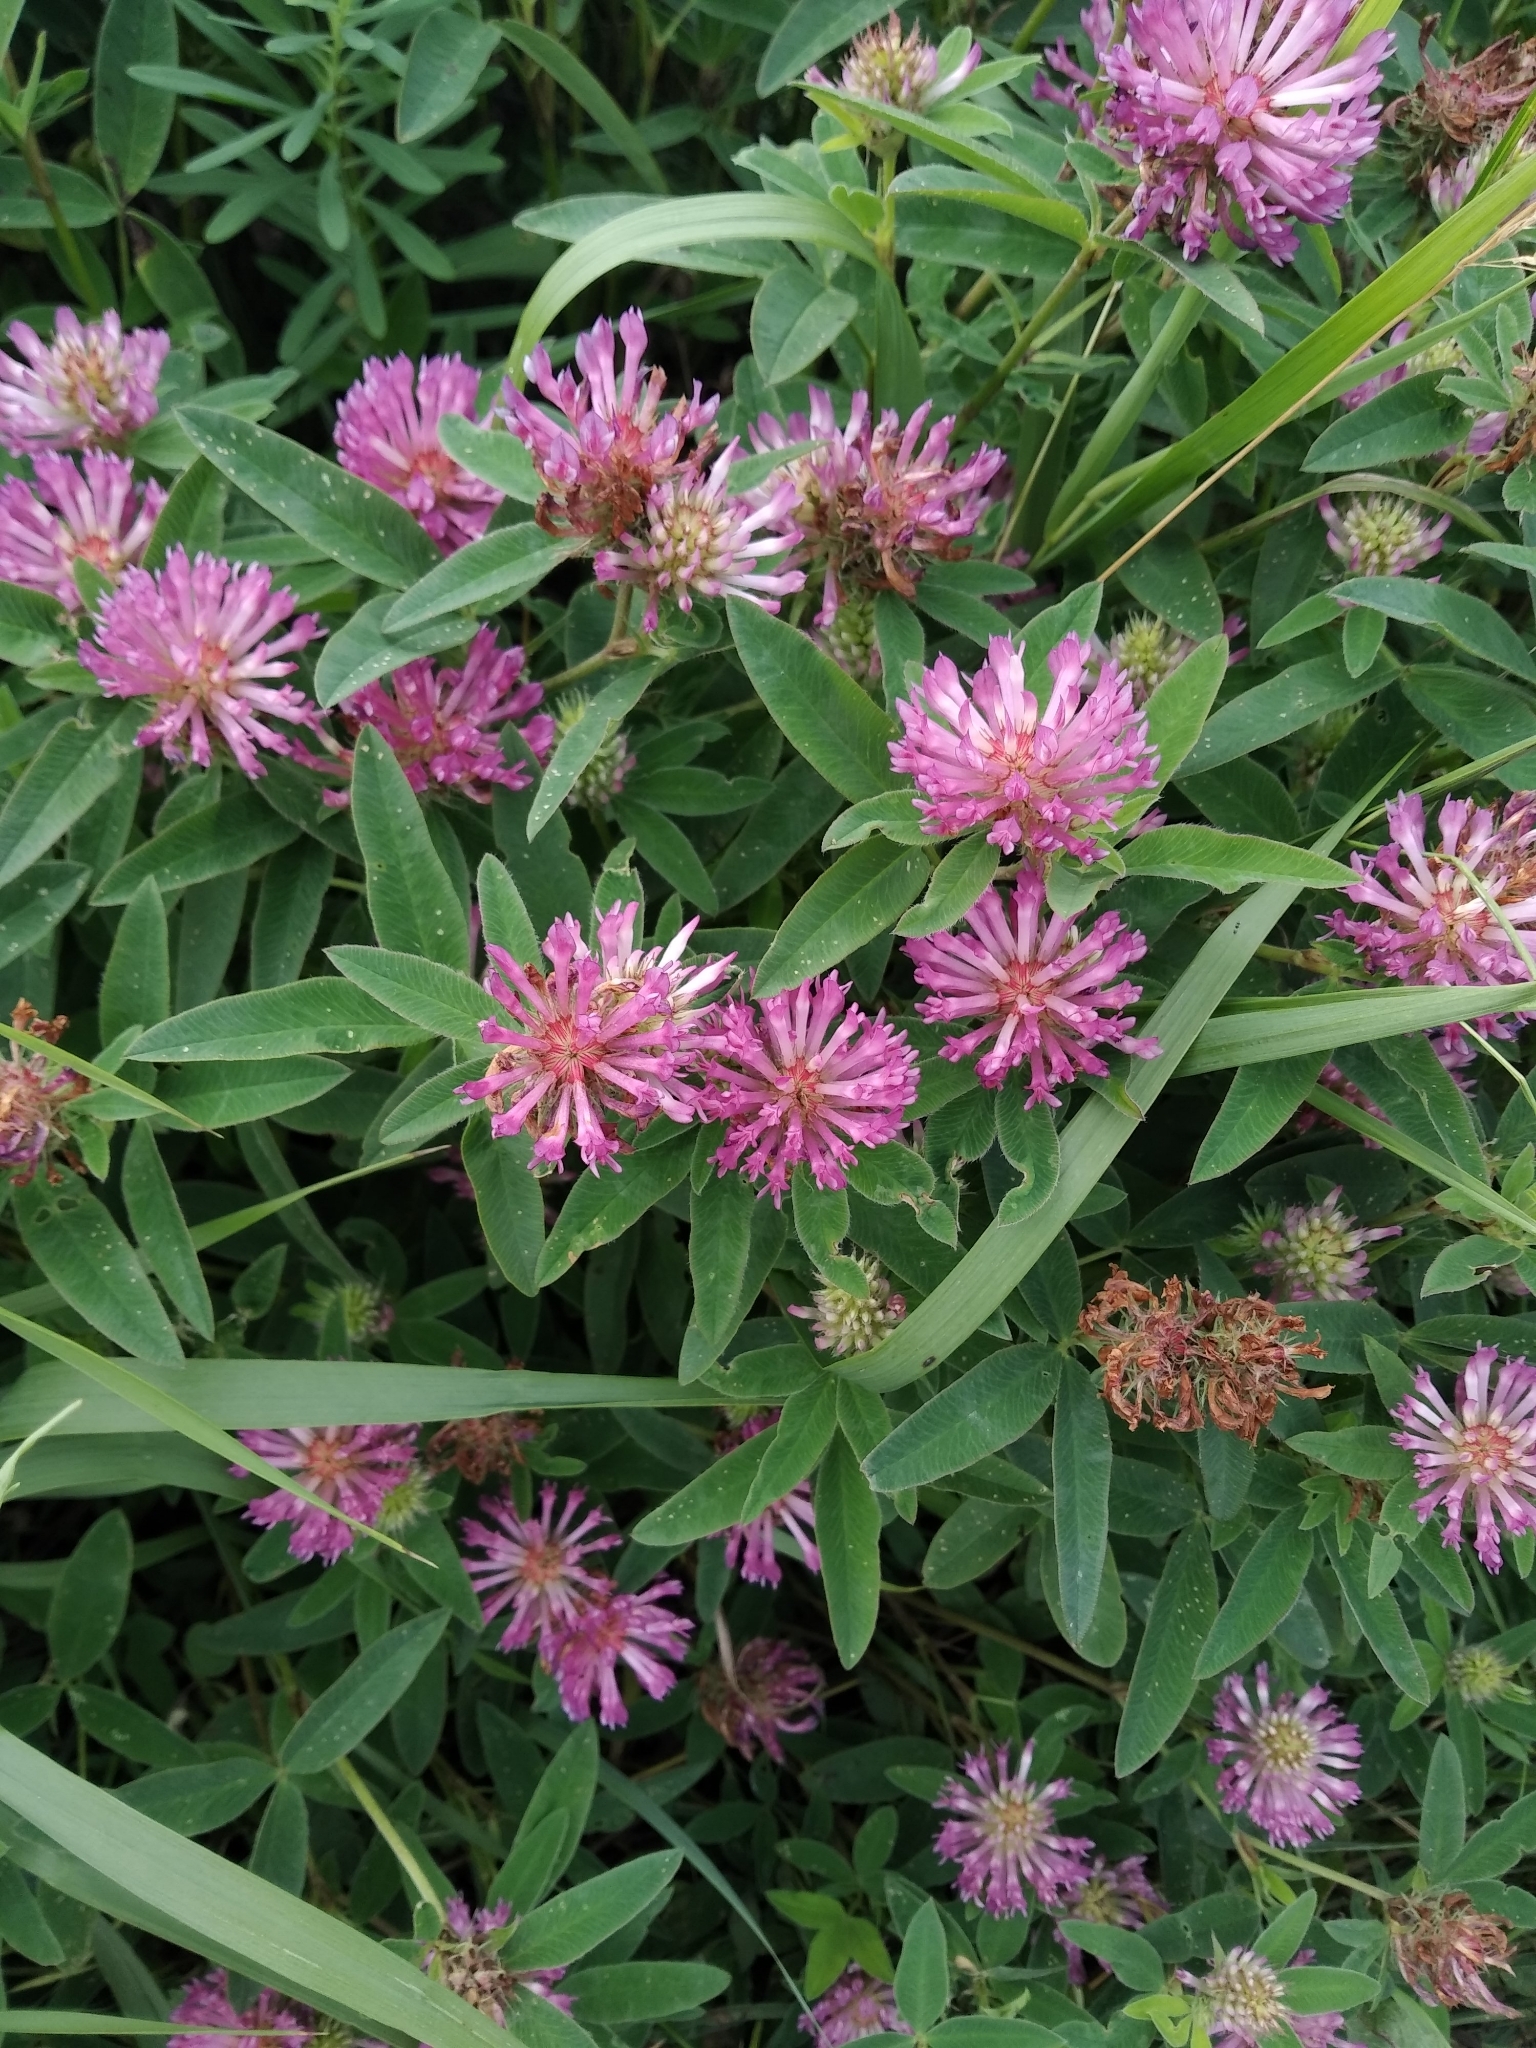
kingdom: Plantae
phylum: Tracheophyta
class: Magnoliopsida
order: Fabales
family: Fabaceae
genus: Trifolium
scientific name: Trifolium medium
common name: Zigzag clover
